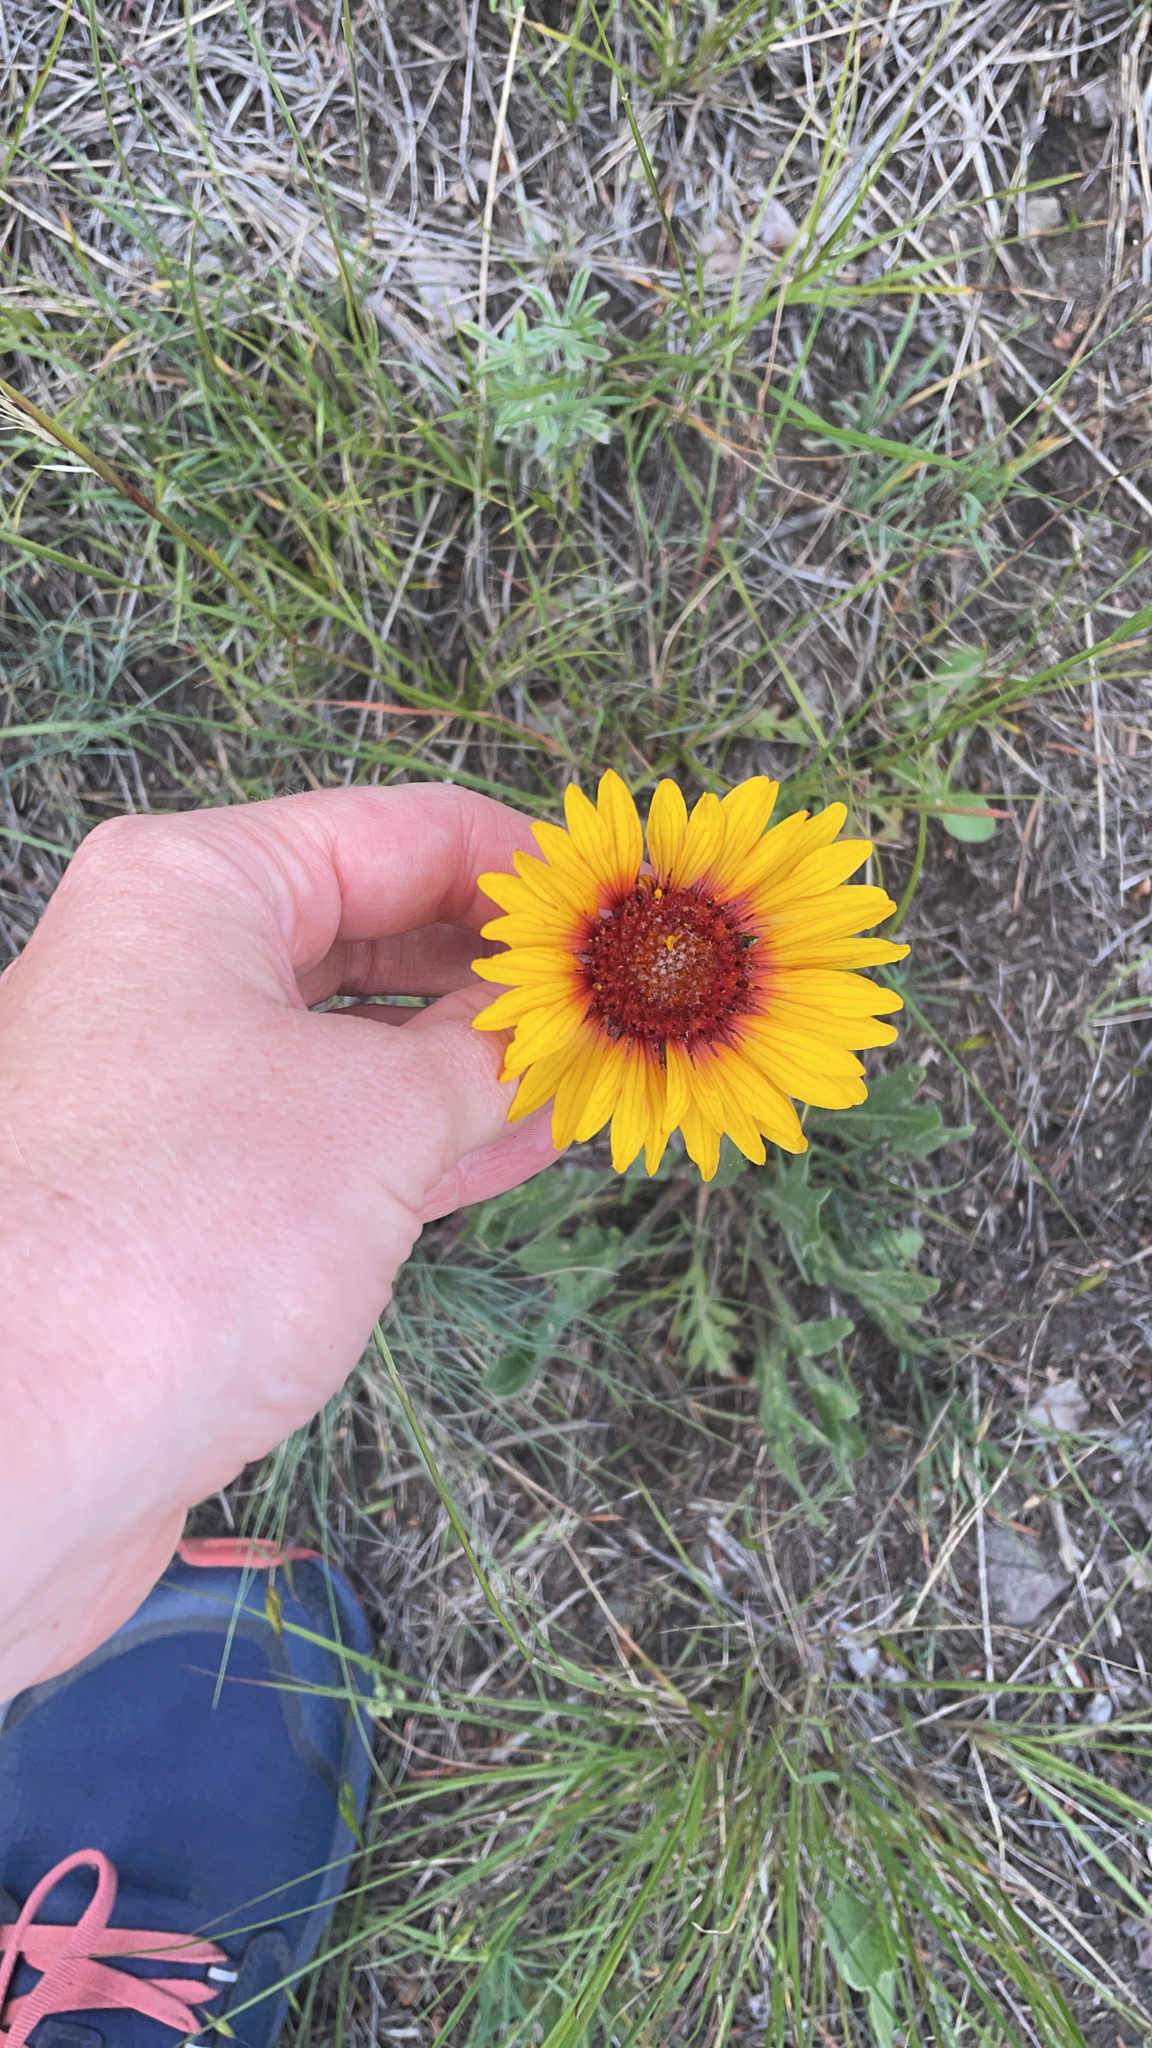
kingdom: Plantae
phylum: Tracheophyta
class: Magnoliopsida
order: Asterales
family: Asteraceae
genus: Gaillardia
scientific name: Gaillardia aristata
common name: Blanket-flower
